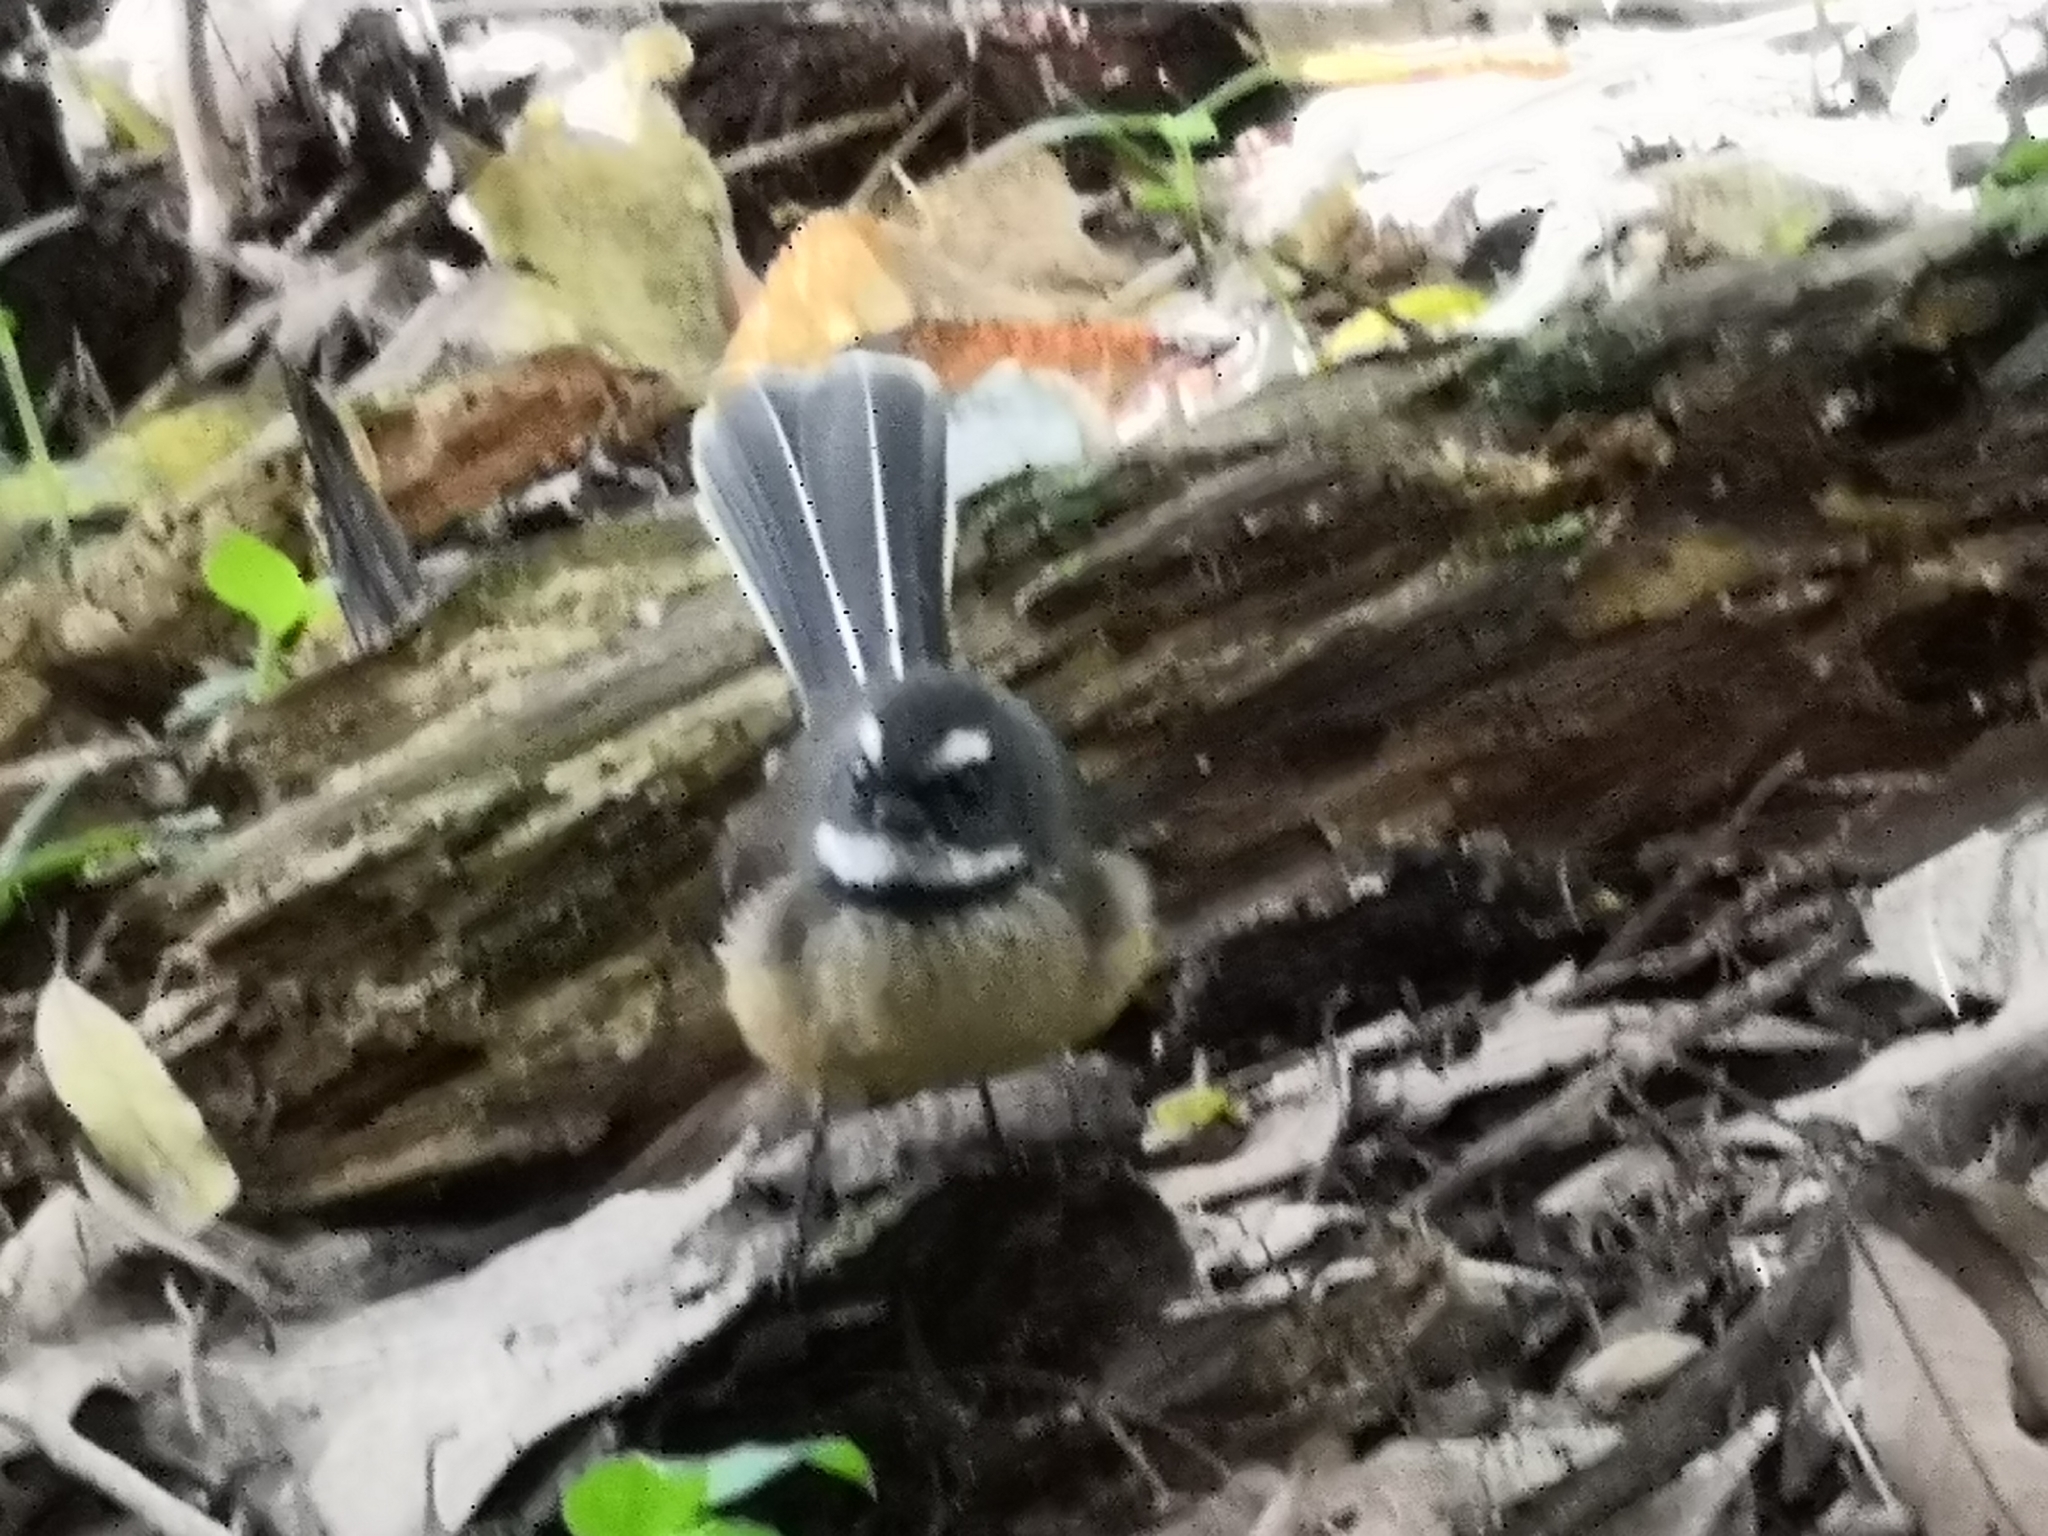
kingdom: Animalia
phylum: Chordata
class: Aves
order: Passeriformes
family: Rhipiduridae
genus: Rhipidura
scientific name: Rhipidura fuliginosa
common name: New zealand fantail
